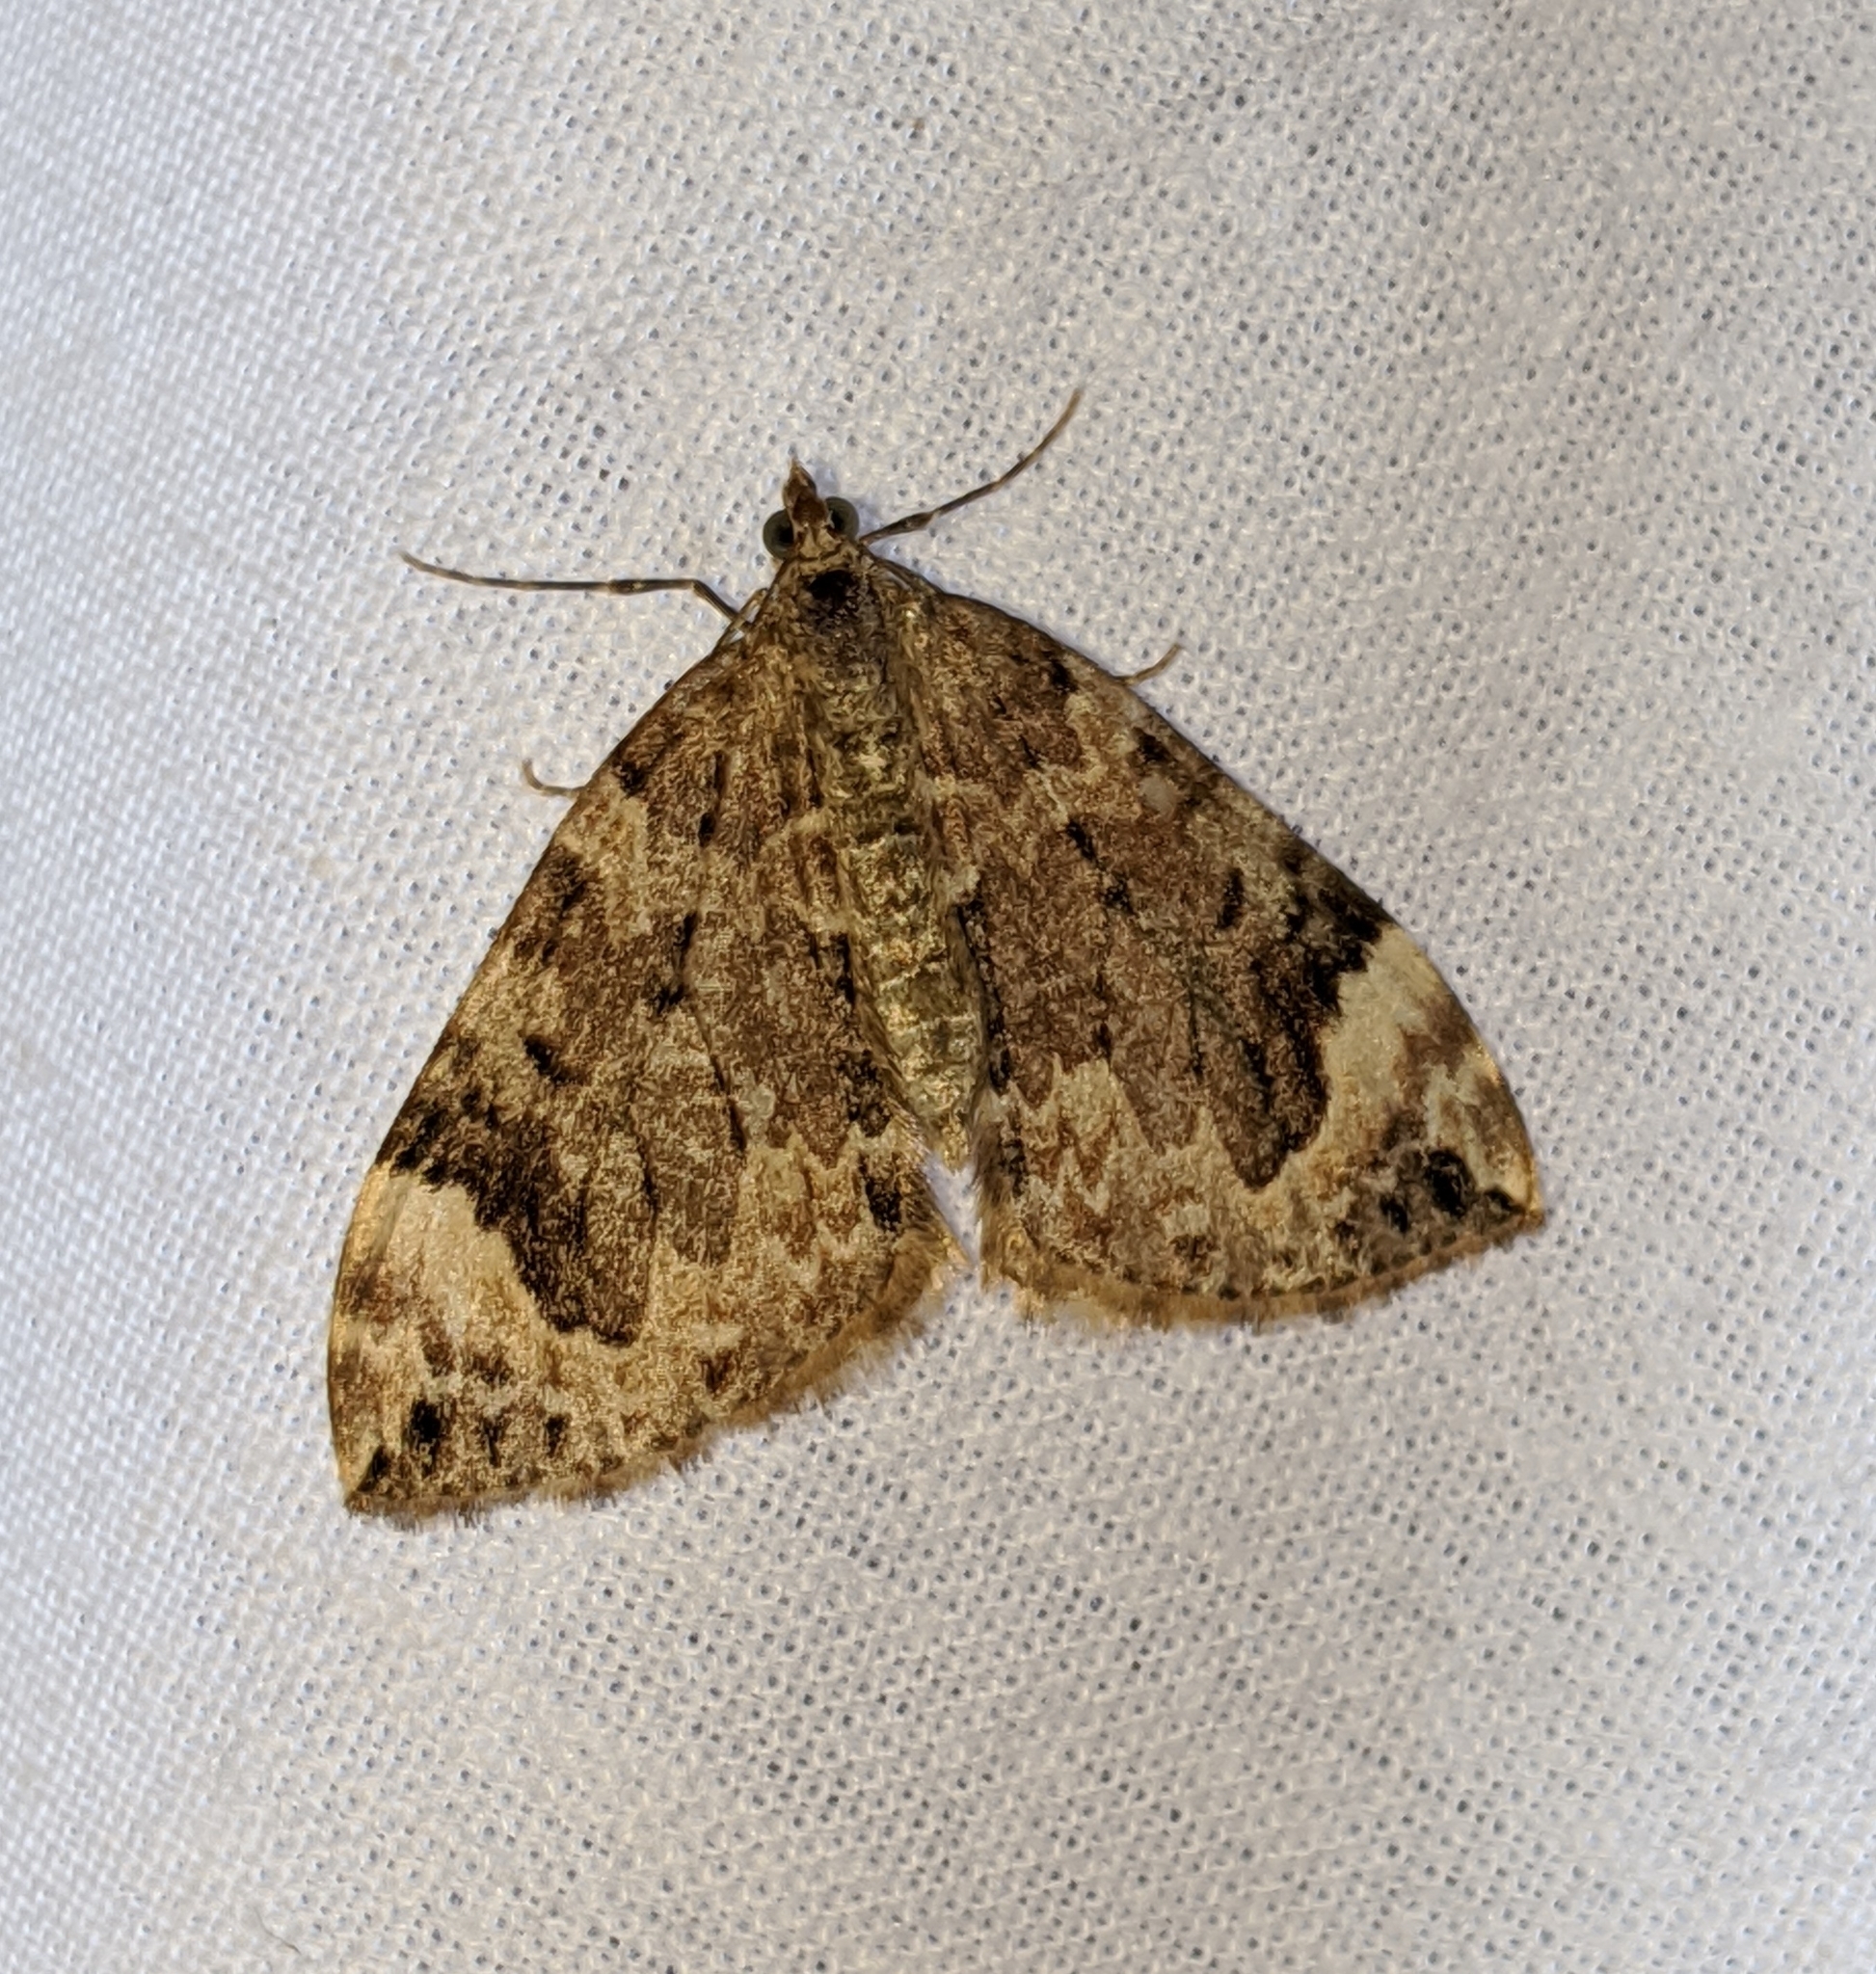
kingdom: Animalia
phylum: Arthropoda
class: Insecta
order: Lepidoptera
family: Geometridae
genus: Dysstroma
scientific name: Dysstroma citrata
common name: Dark marbled carpet
